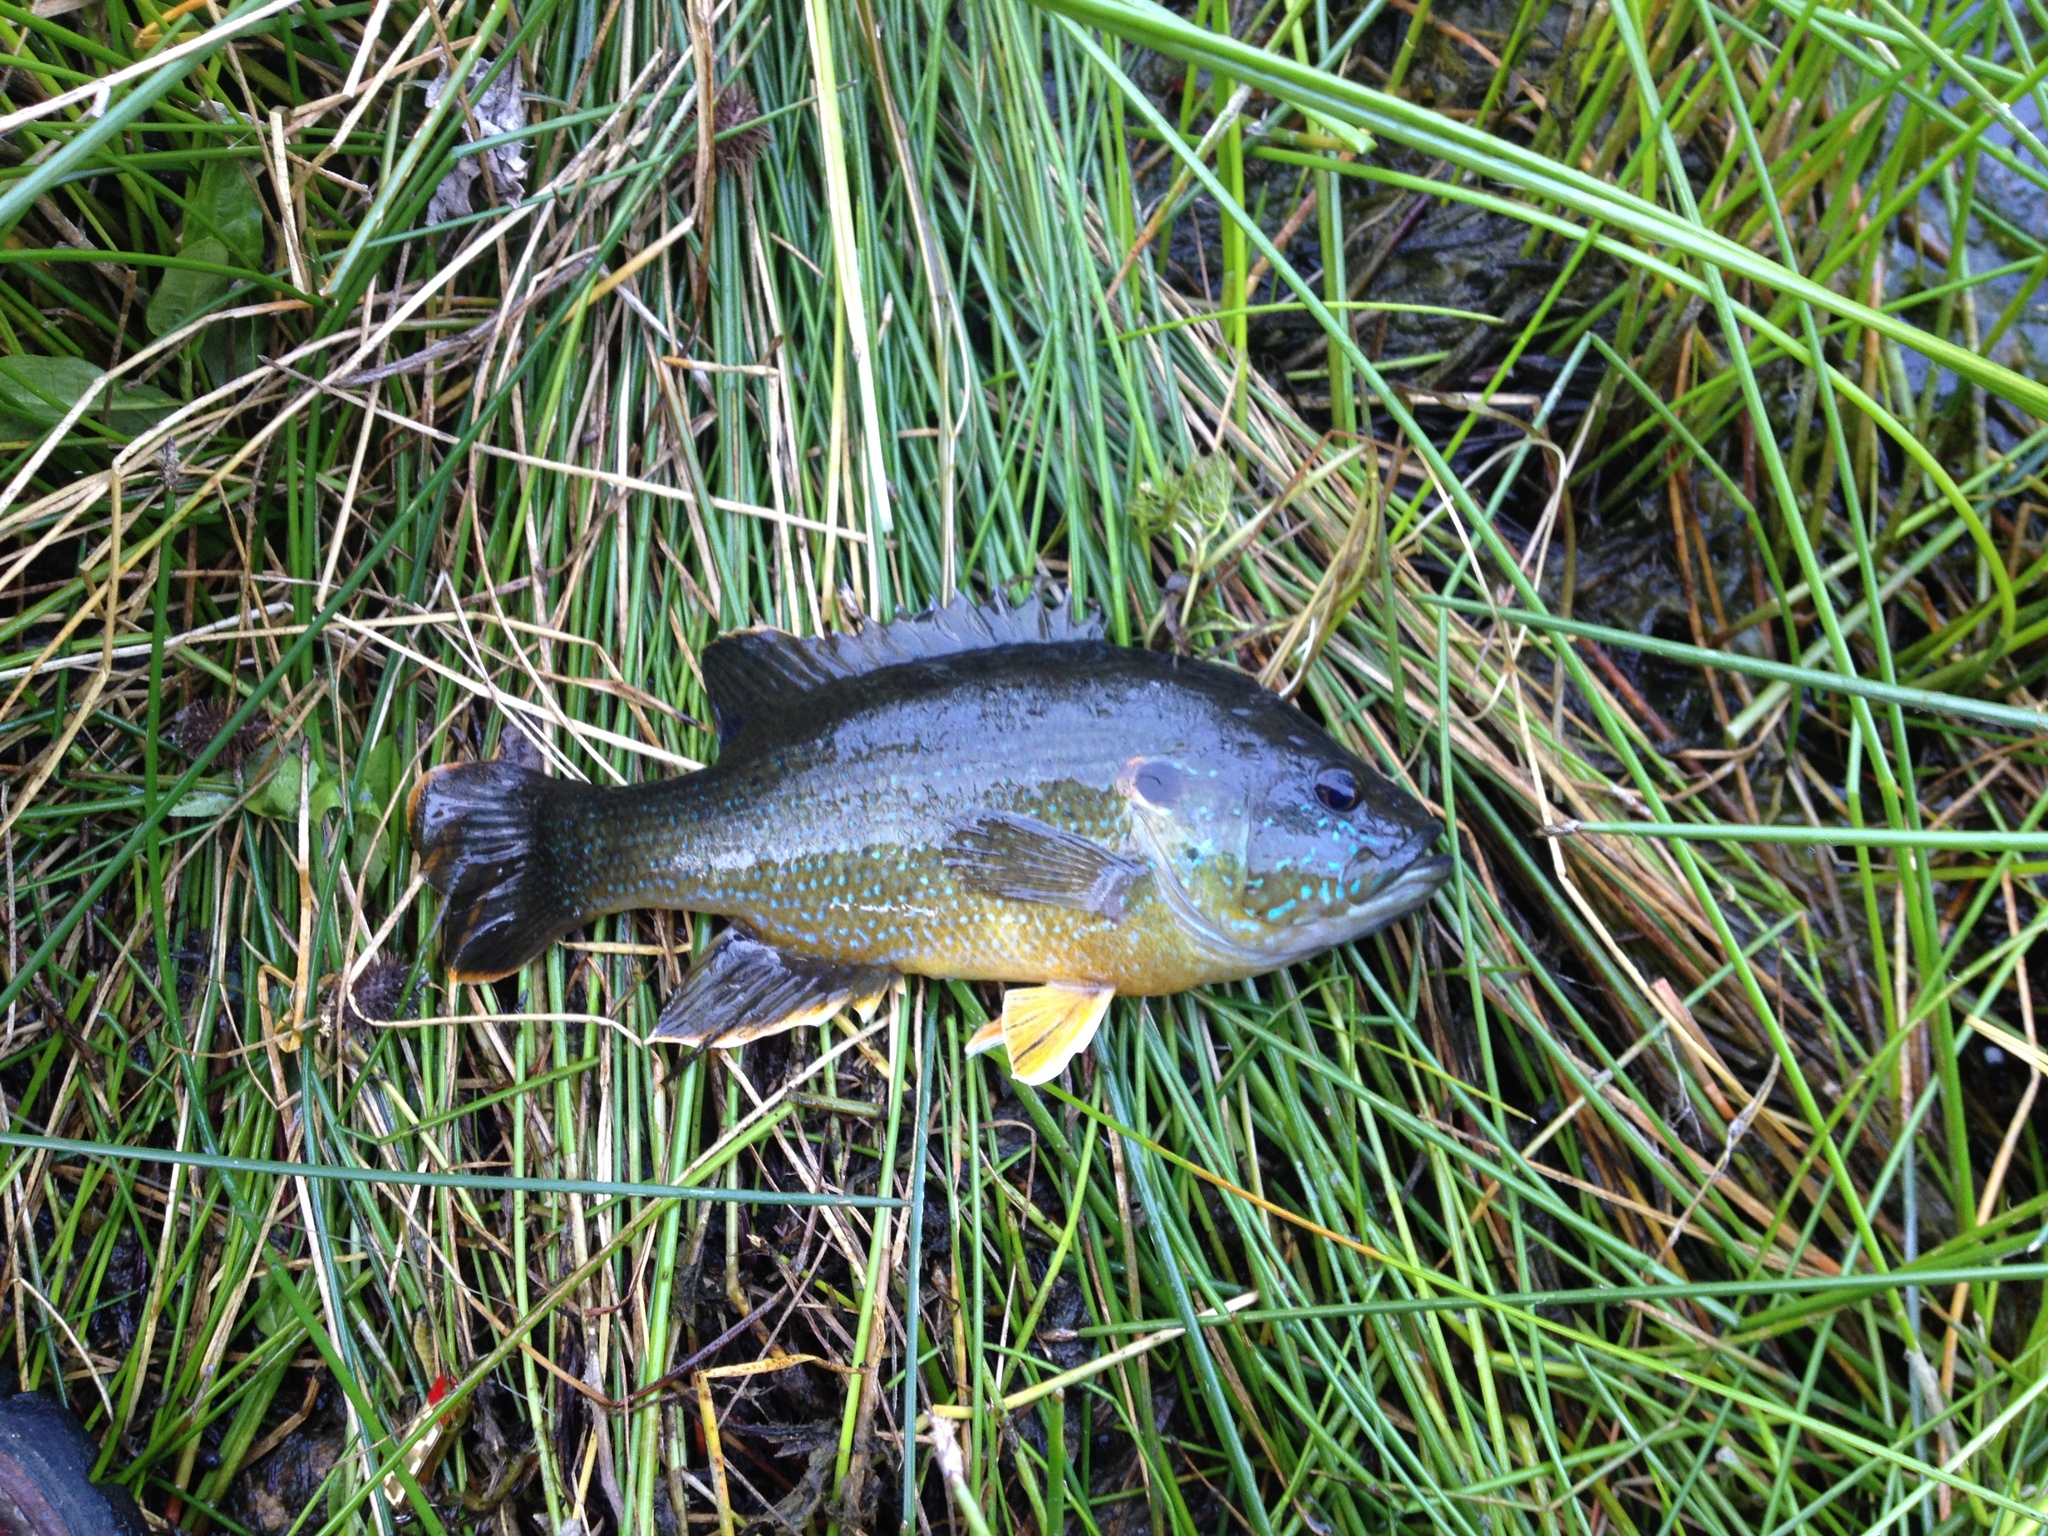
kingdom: Animalia
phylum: Chordata
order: Perciformes
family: Centrarchidae
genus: Lepomis
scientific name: Lepomis cyanellus
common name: Green sunfish
